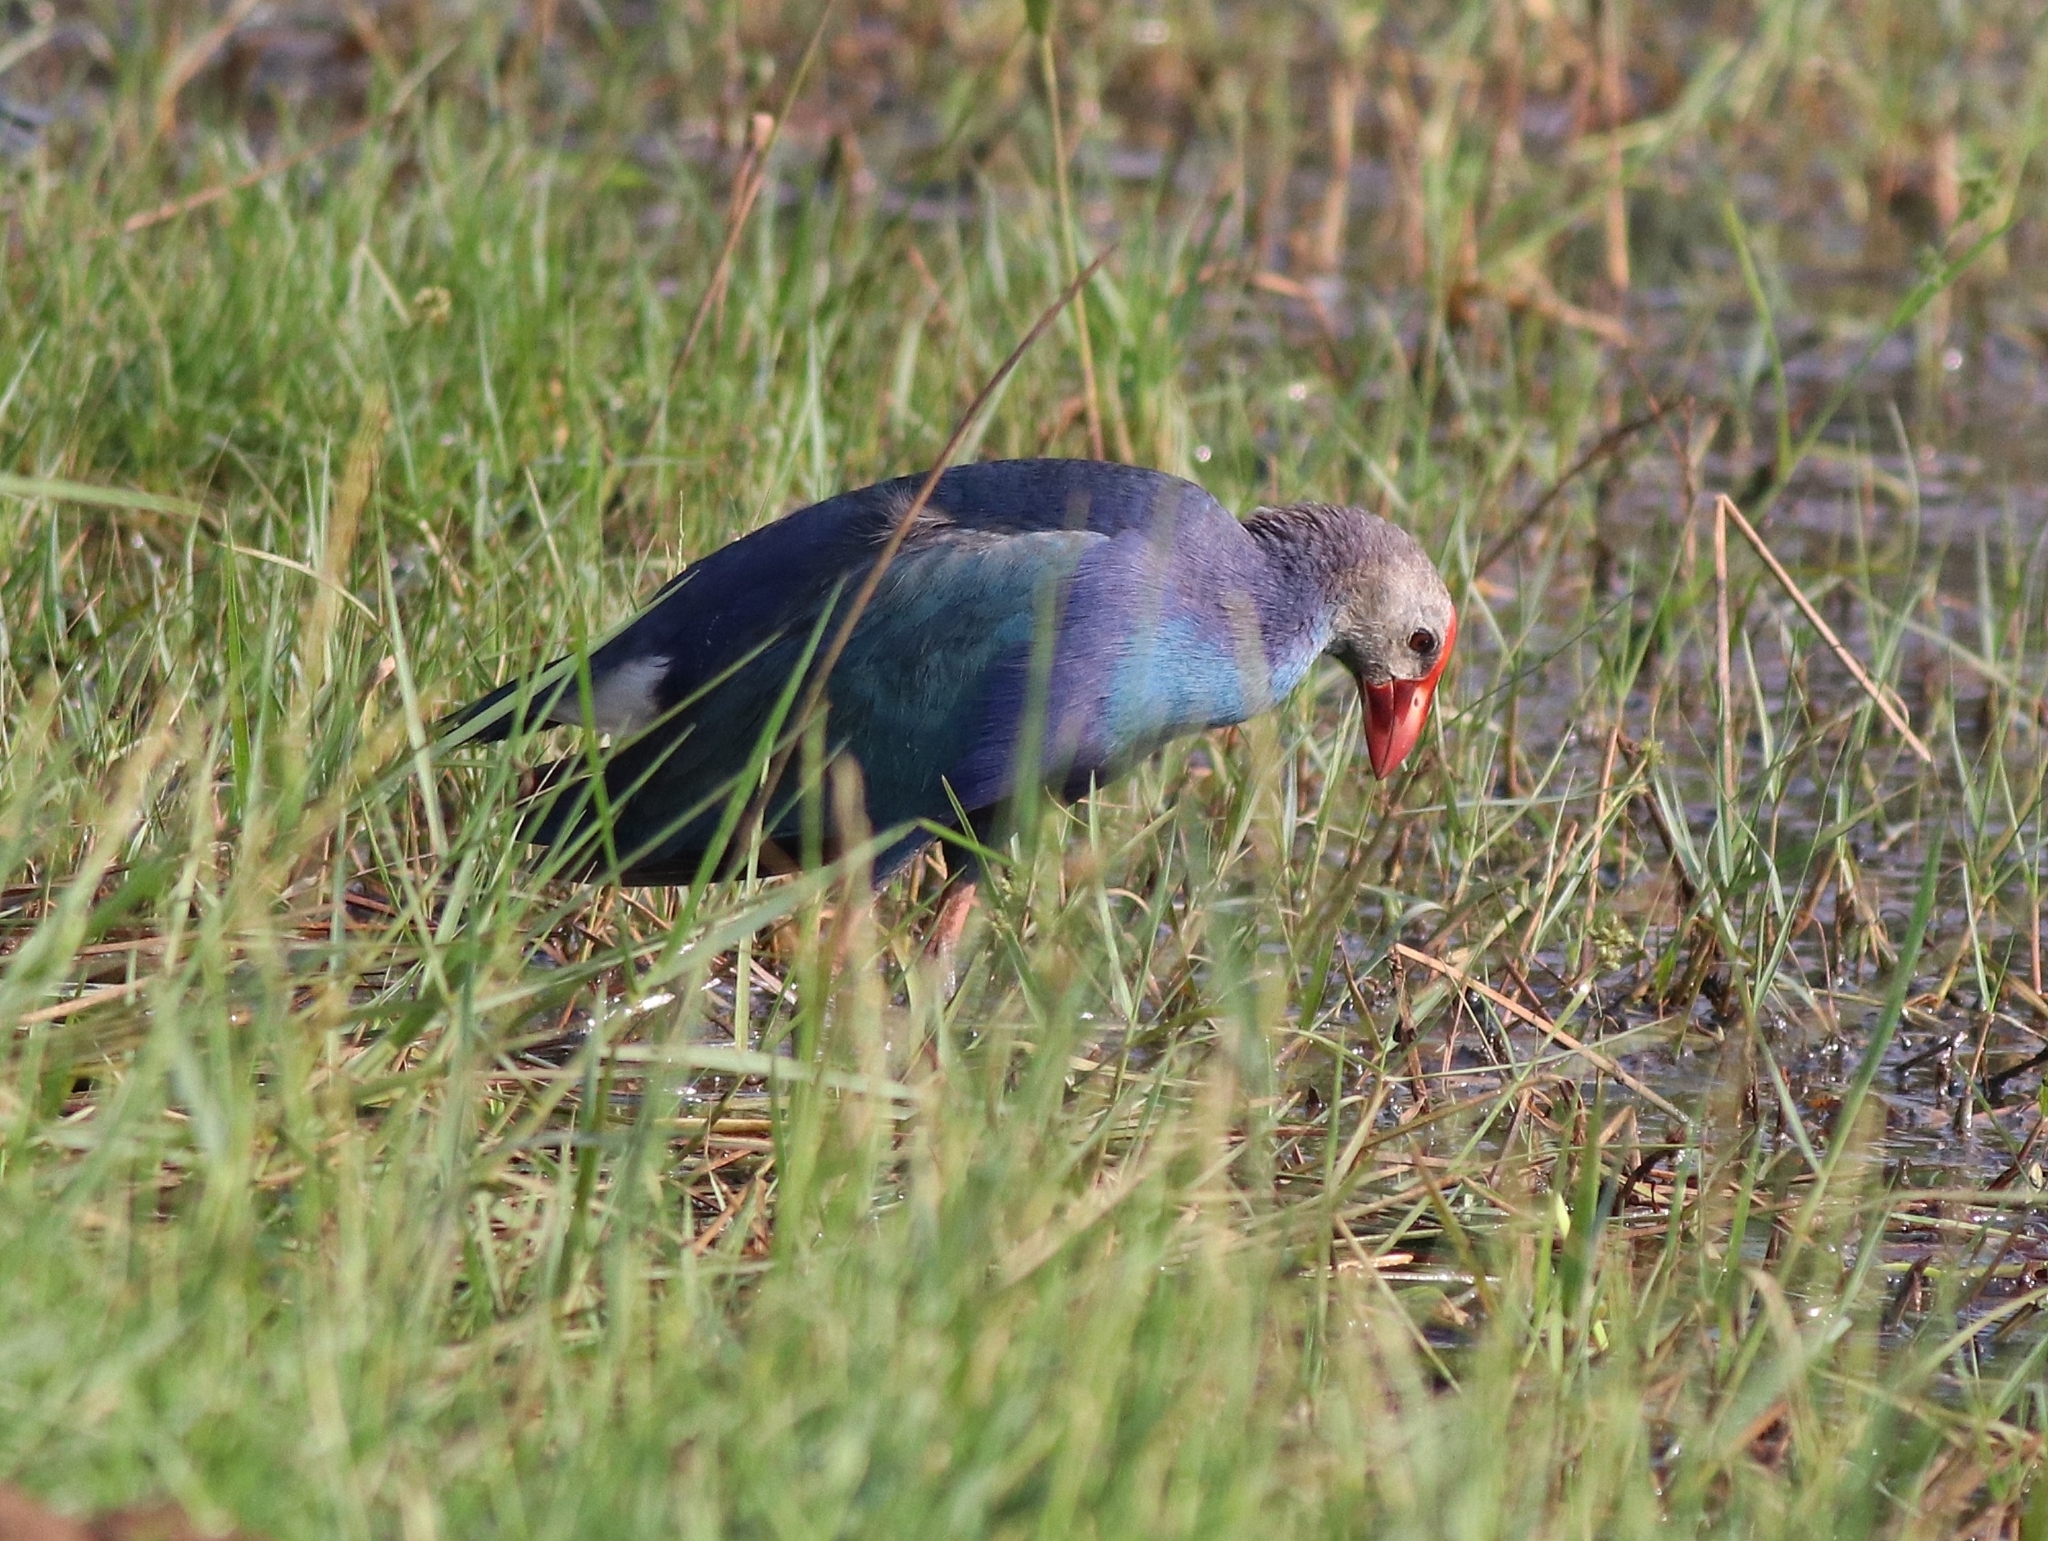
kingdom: Animalia
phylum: Chordata
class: Aves
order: Gruiformes
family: Rallidae
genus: Porphyrio
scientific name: Porphyrio porphyrio
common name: Purple swamphen
